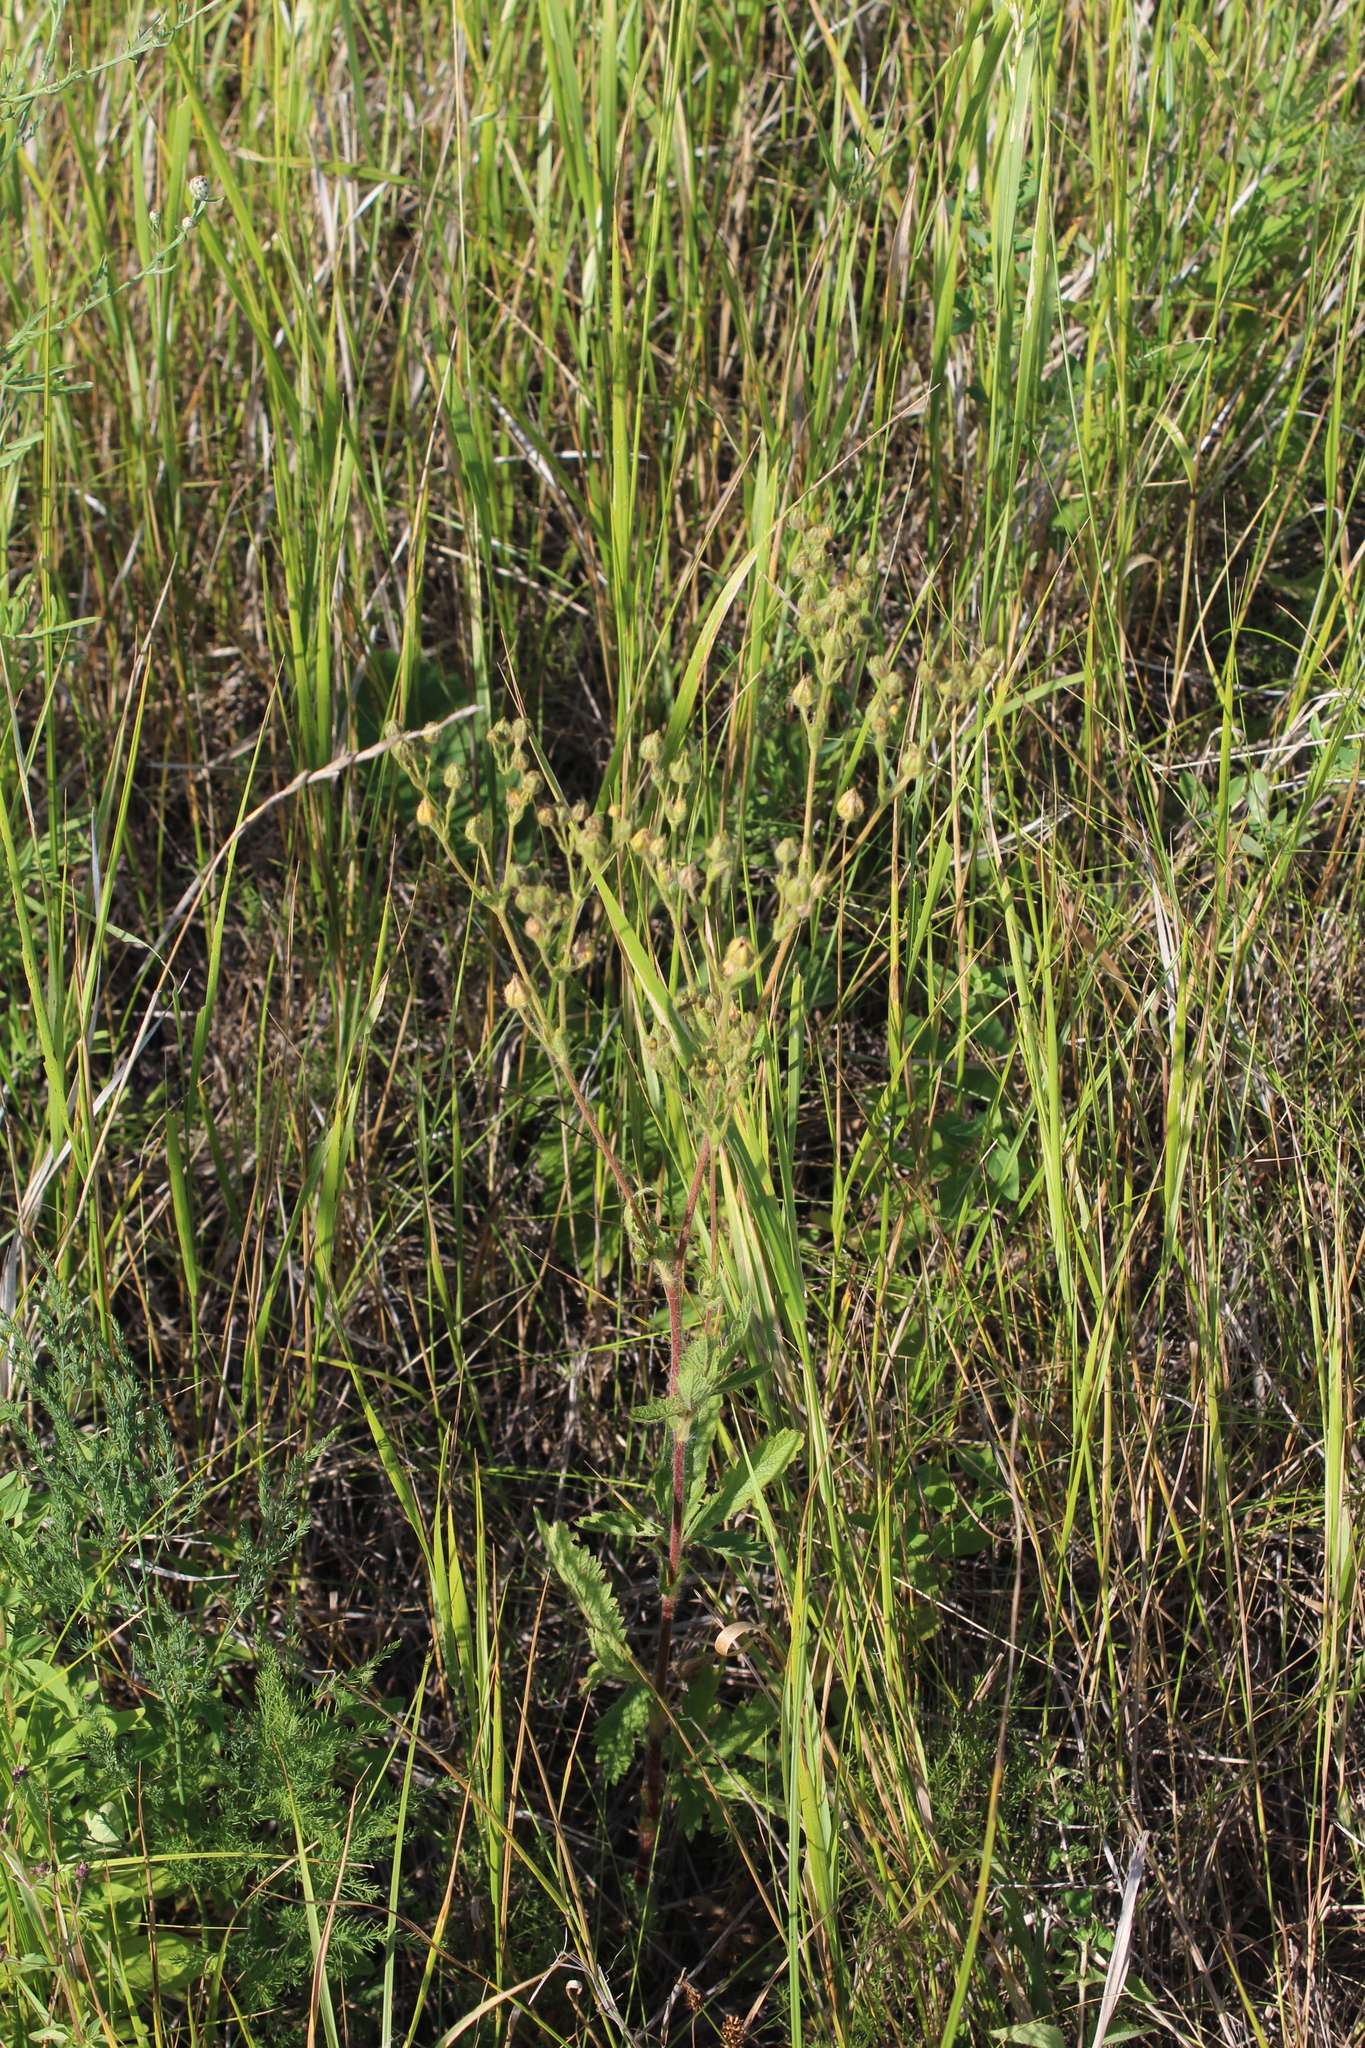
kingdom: Plantae
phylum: Tracheophyta
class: Magnoliopsida
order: Rosales
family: Rosaceae
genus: Potentilla
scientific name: Potentilla recta
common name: Sulphur cinquefoil
